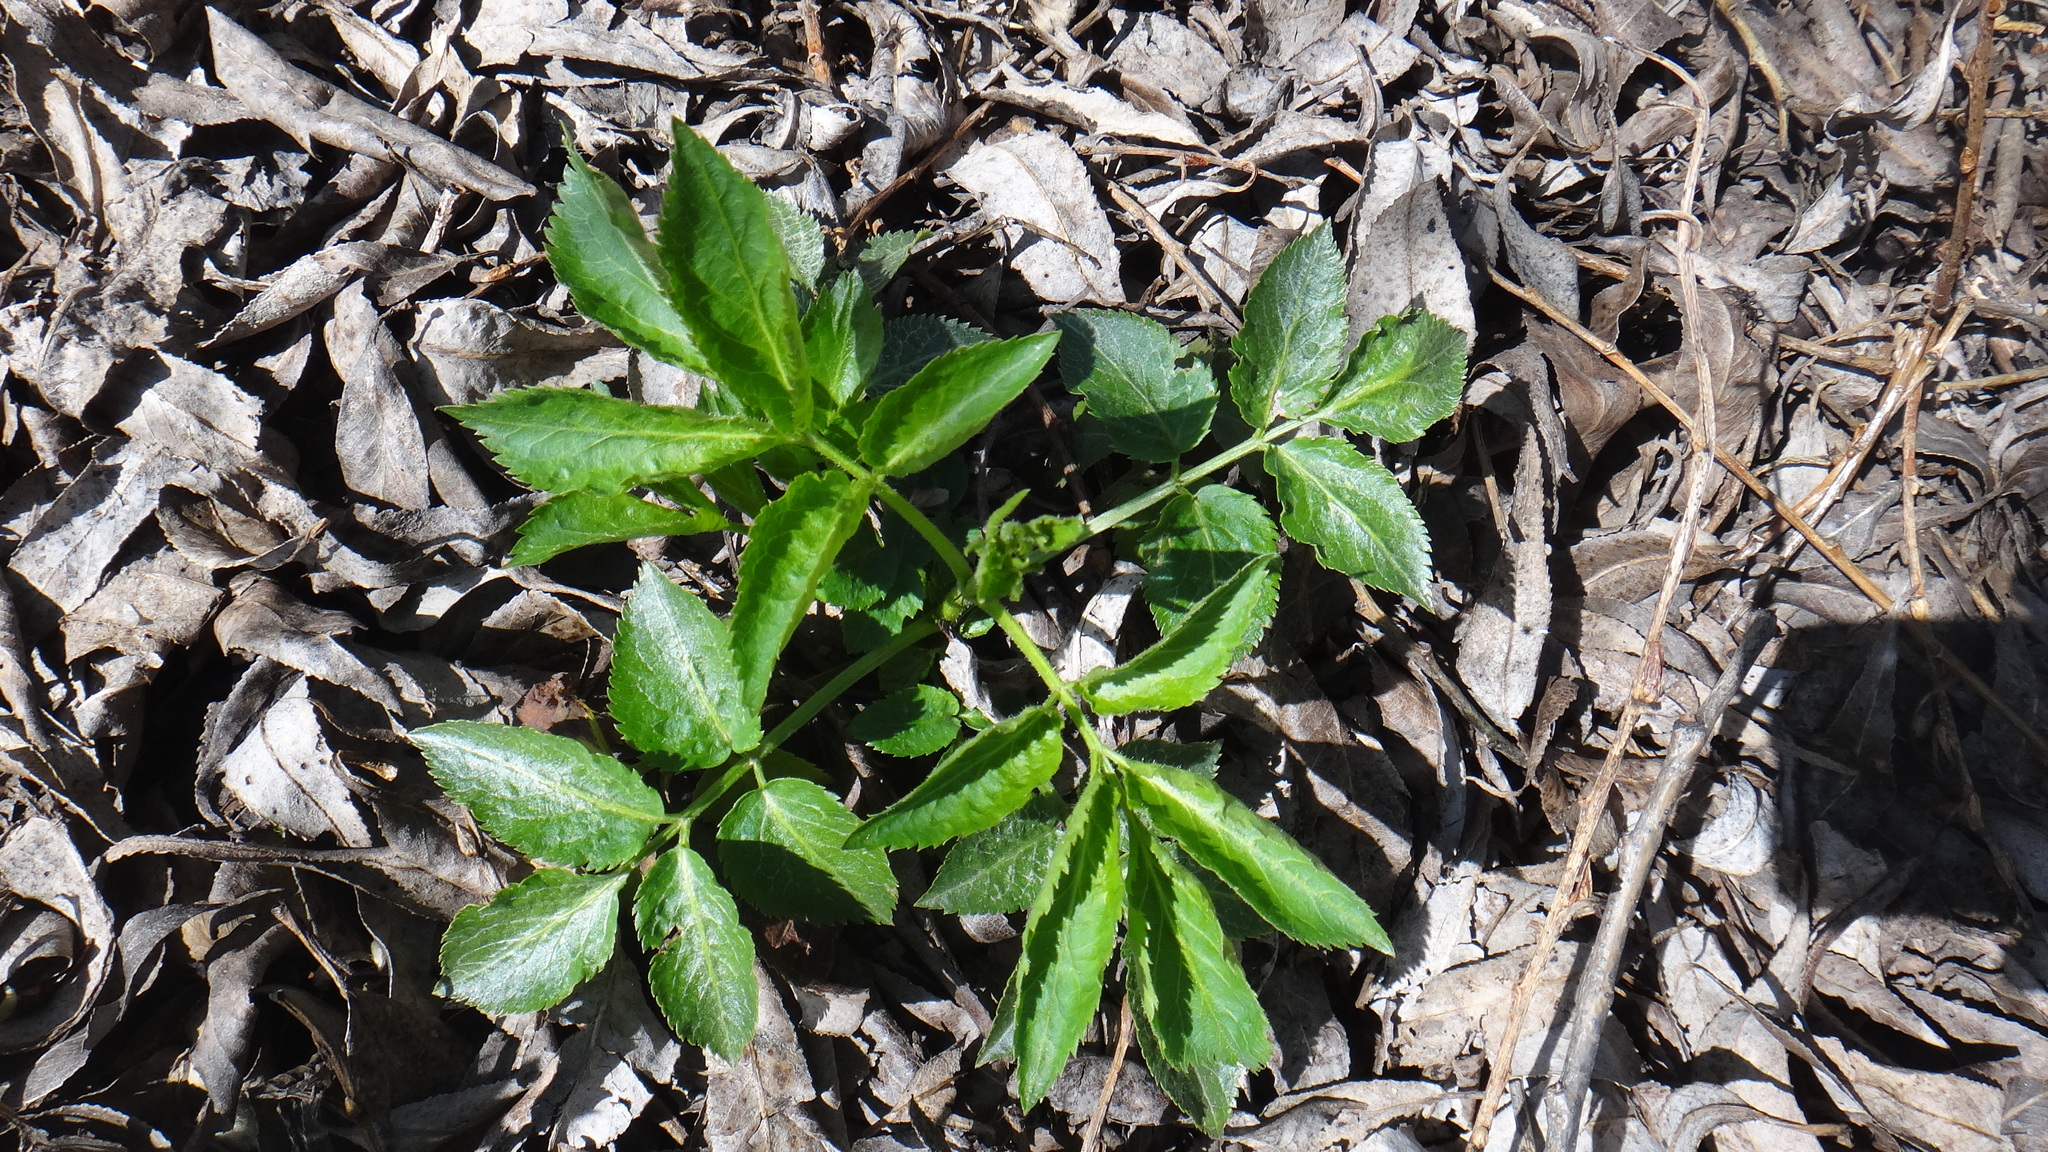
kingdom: Plantae
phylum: Tracheophyta
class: Magnoliopsida
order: Dipsacales
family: Viburnaceae
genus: Sambucus
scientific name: Sambucus nigra
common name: Elder
